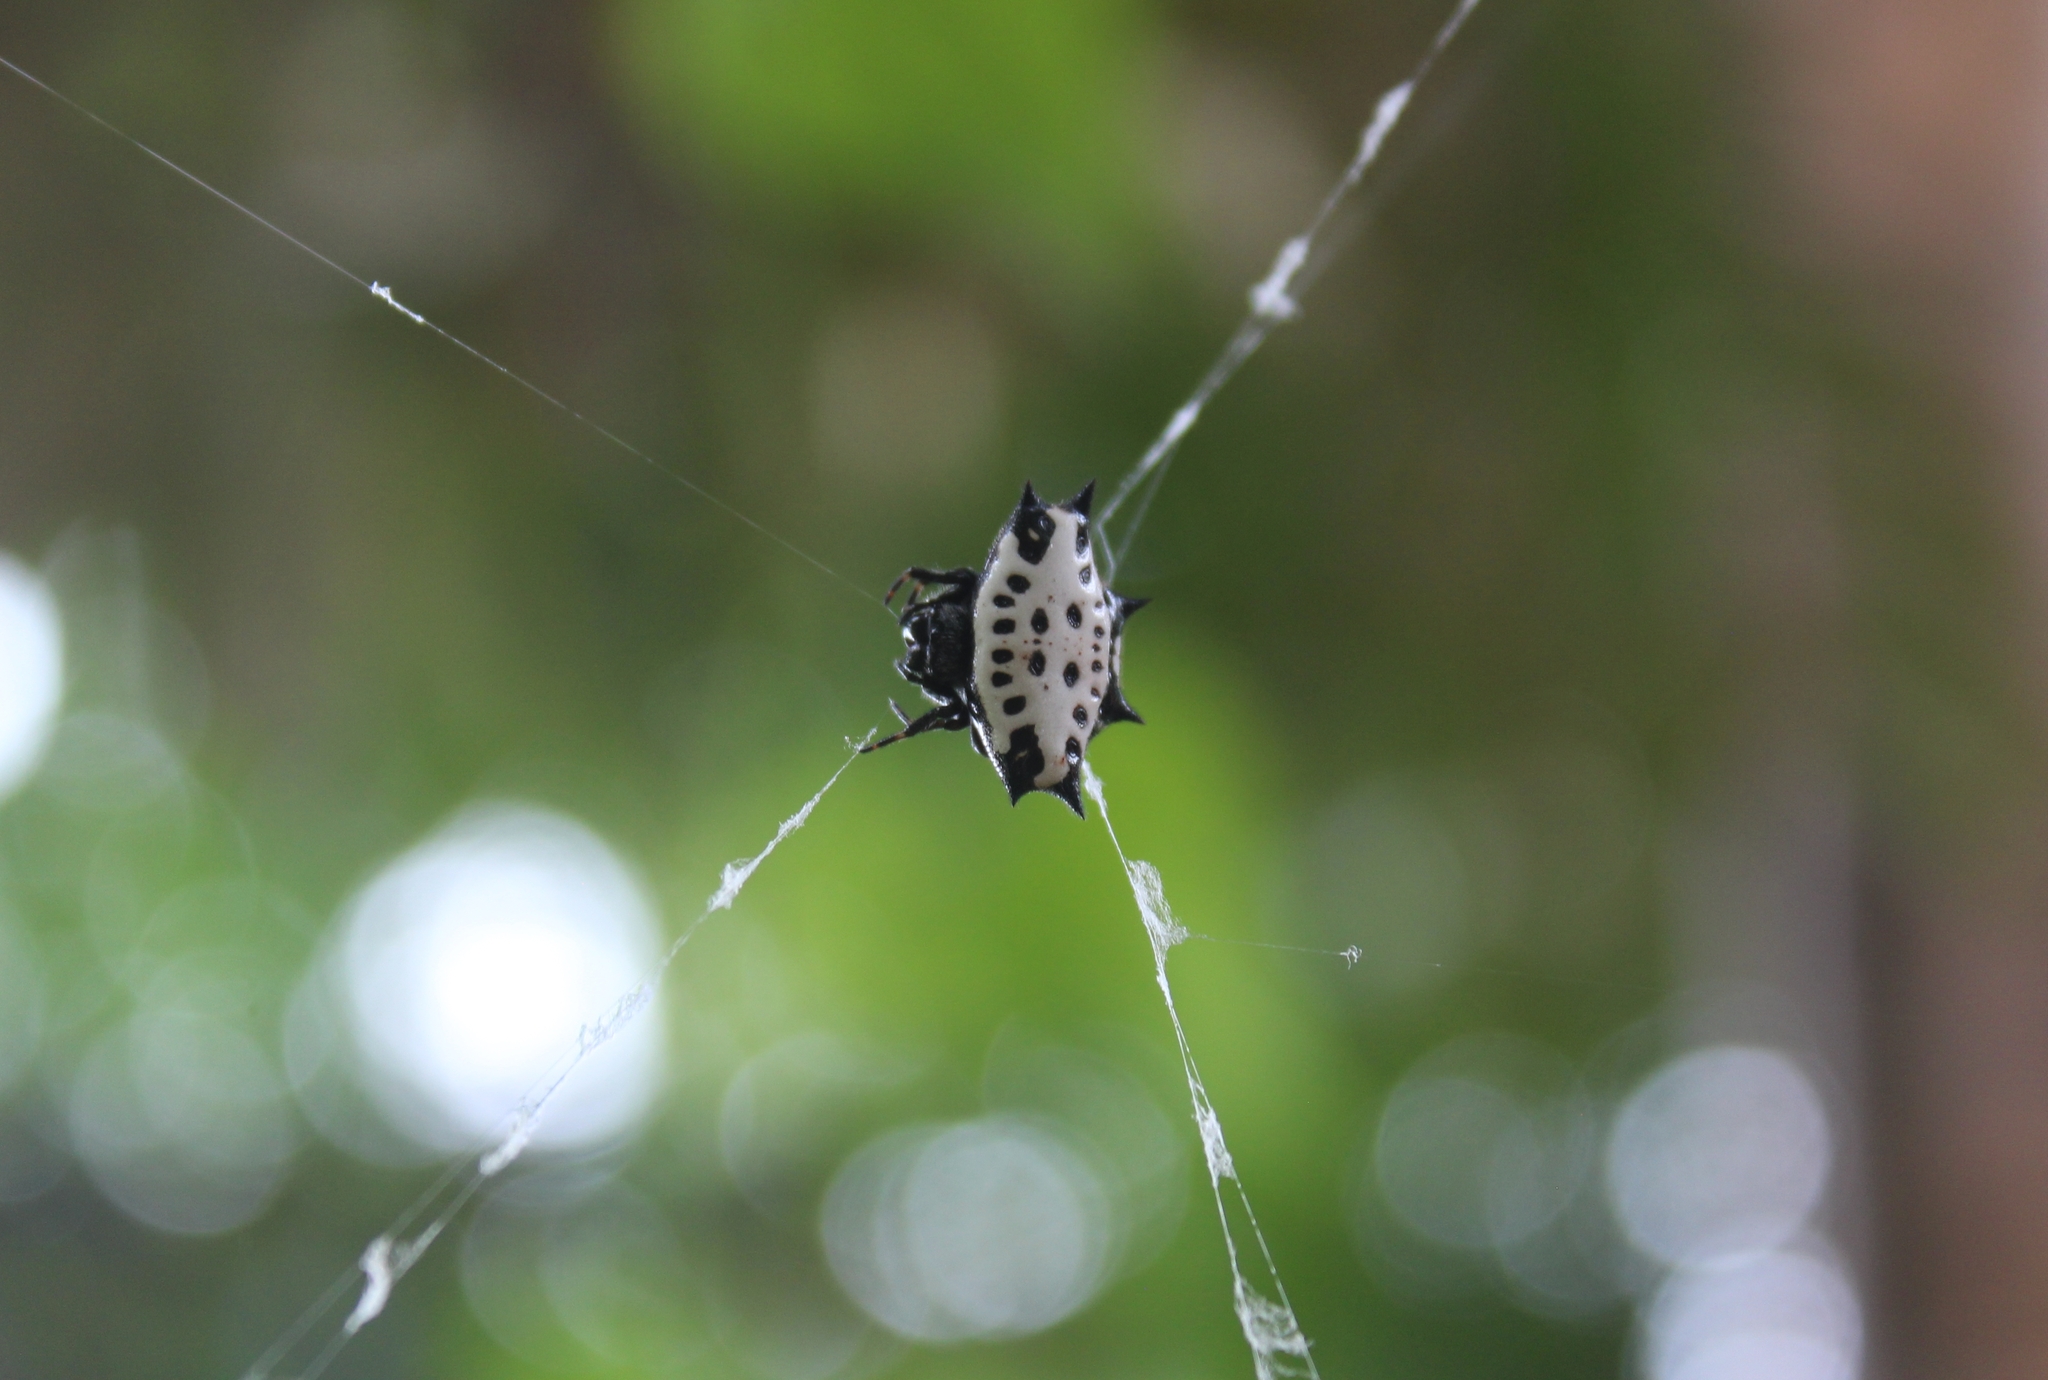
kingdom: Animalia
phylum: Arthropoda
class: Arachnida
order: Araneae
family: Araneidae
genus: Gasteracantha
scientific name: Gasteracantha cancriformis
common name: Orb weavers
